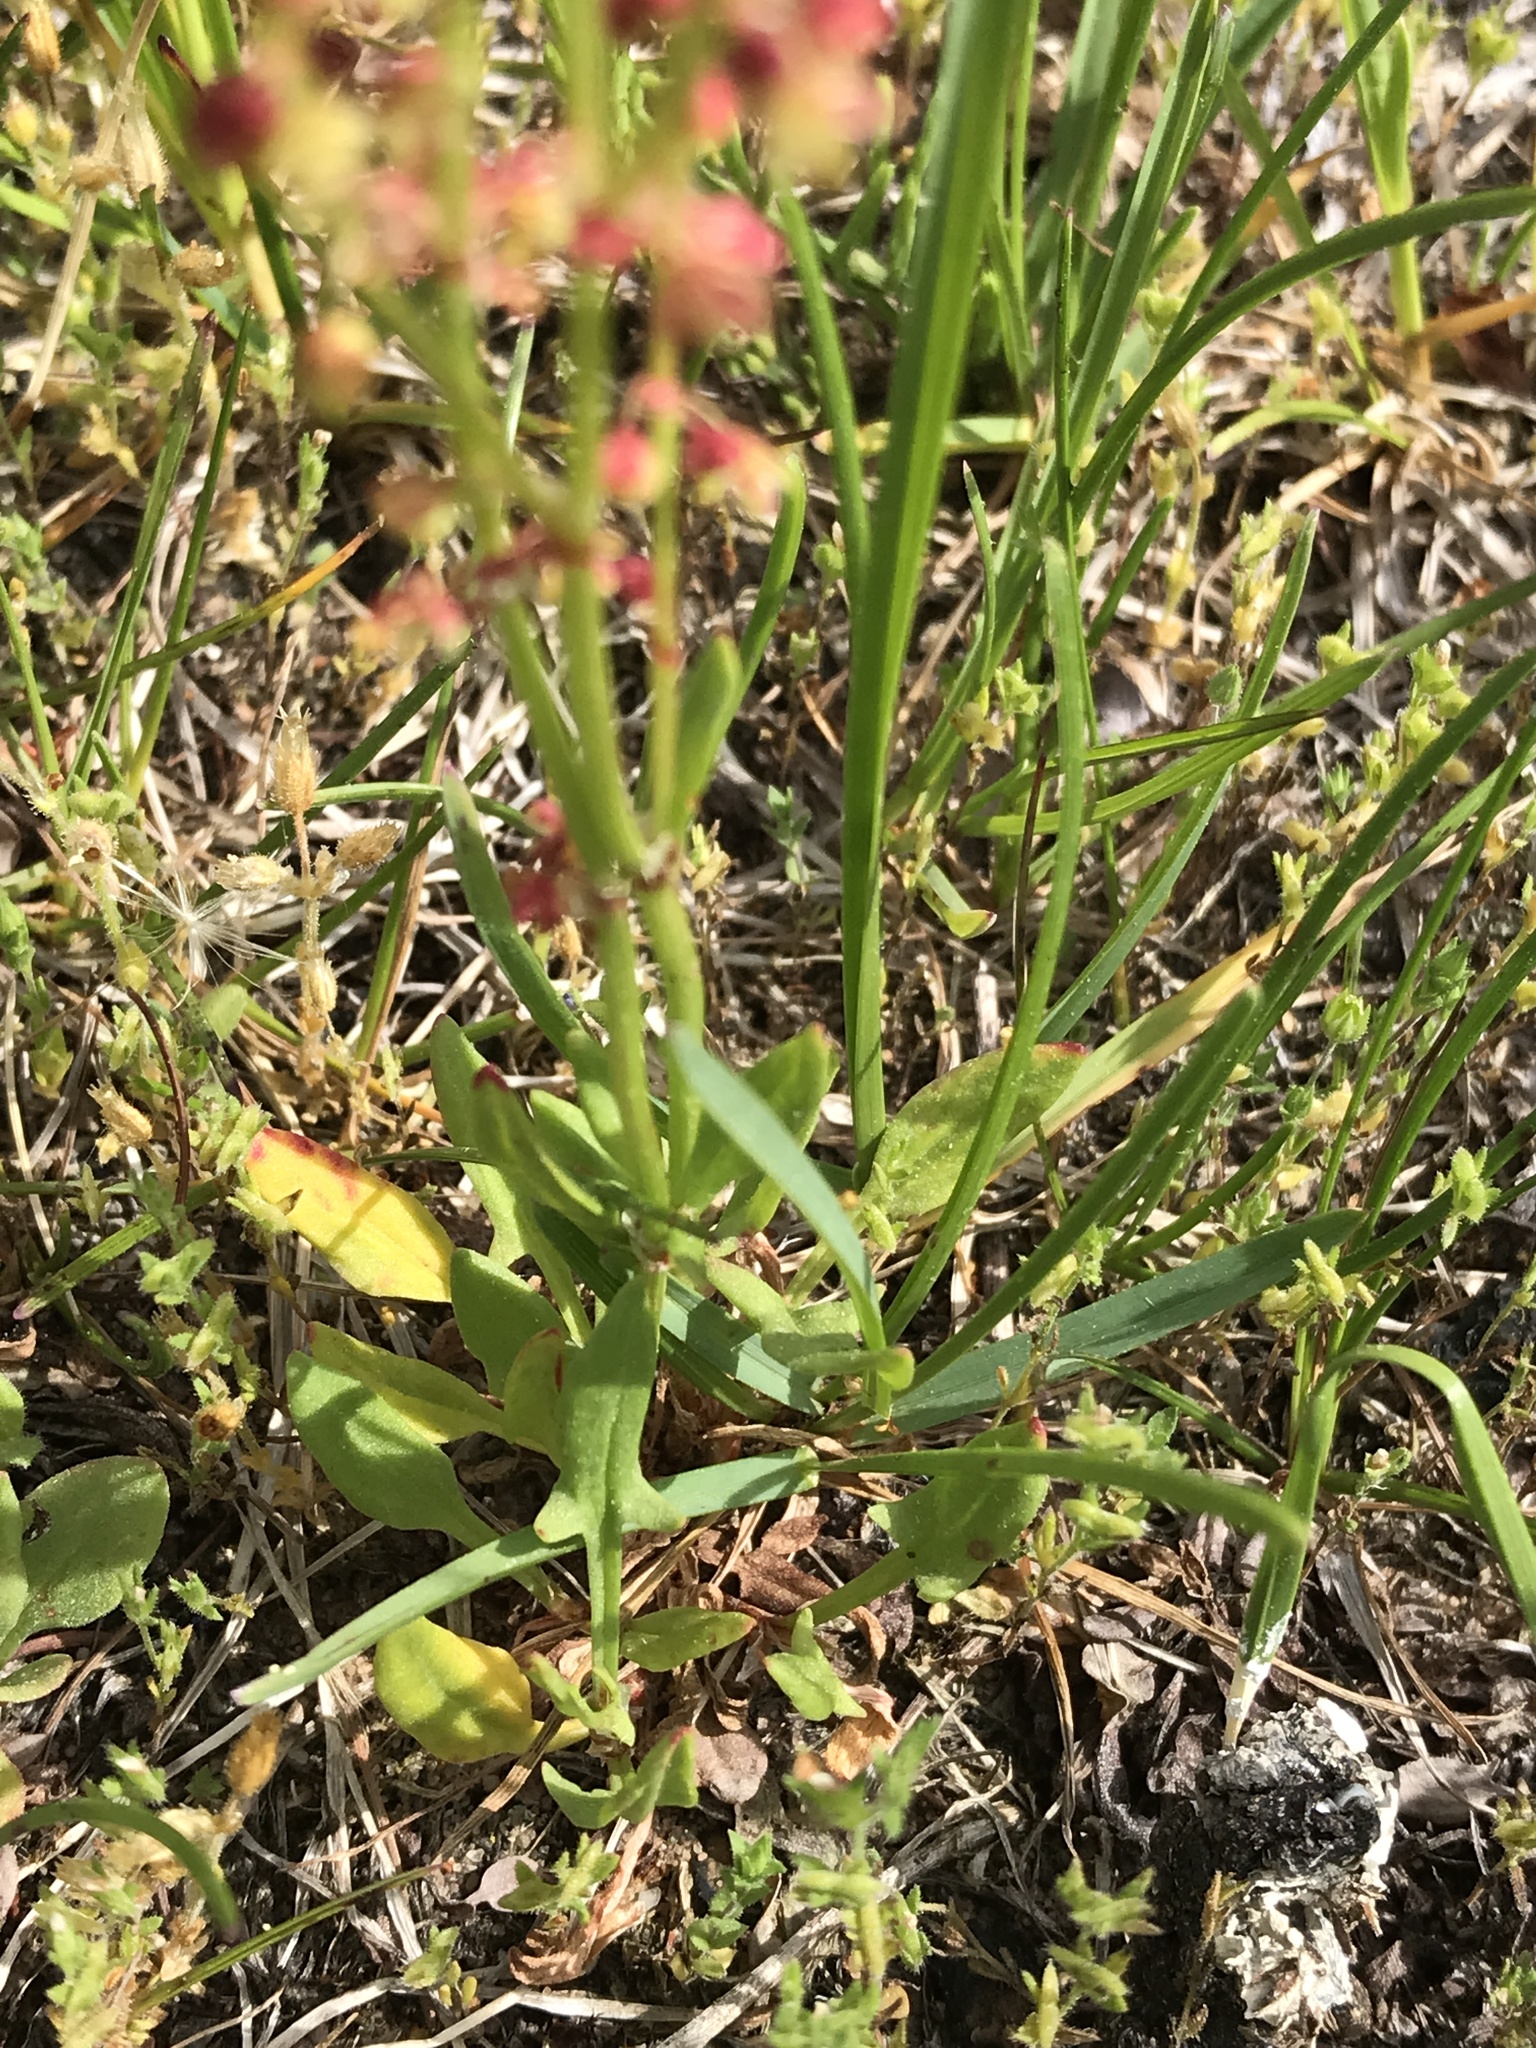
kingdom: Plantae
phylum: Tracheophyta
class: Magnoliopsida
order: Caryophyllales
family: Polygonaceae
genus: Rumex
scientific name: Rumex acetosella
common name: Common sheep sorrel
